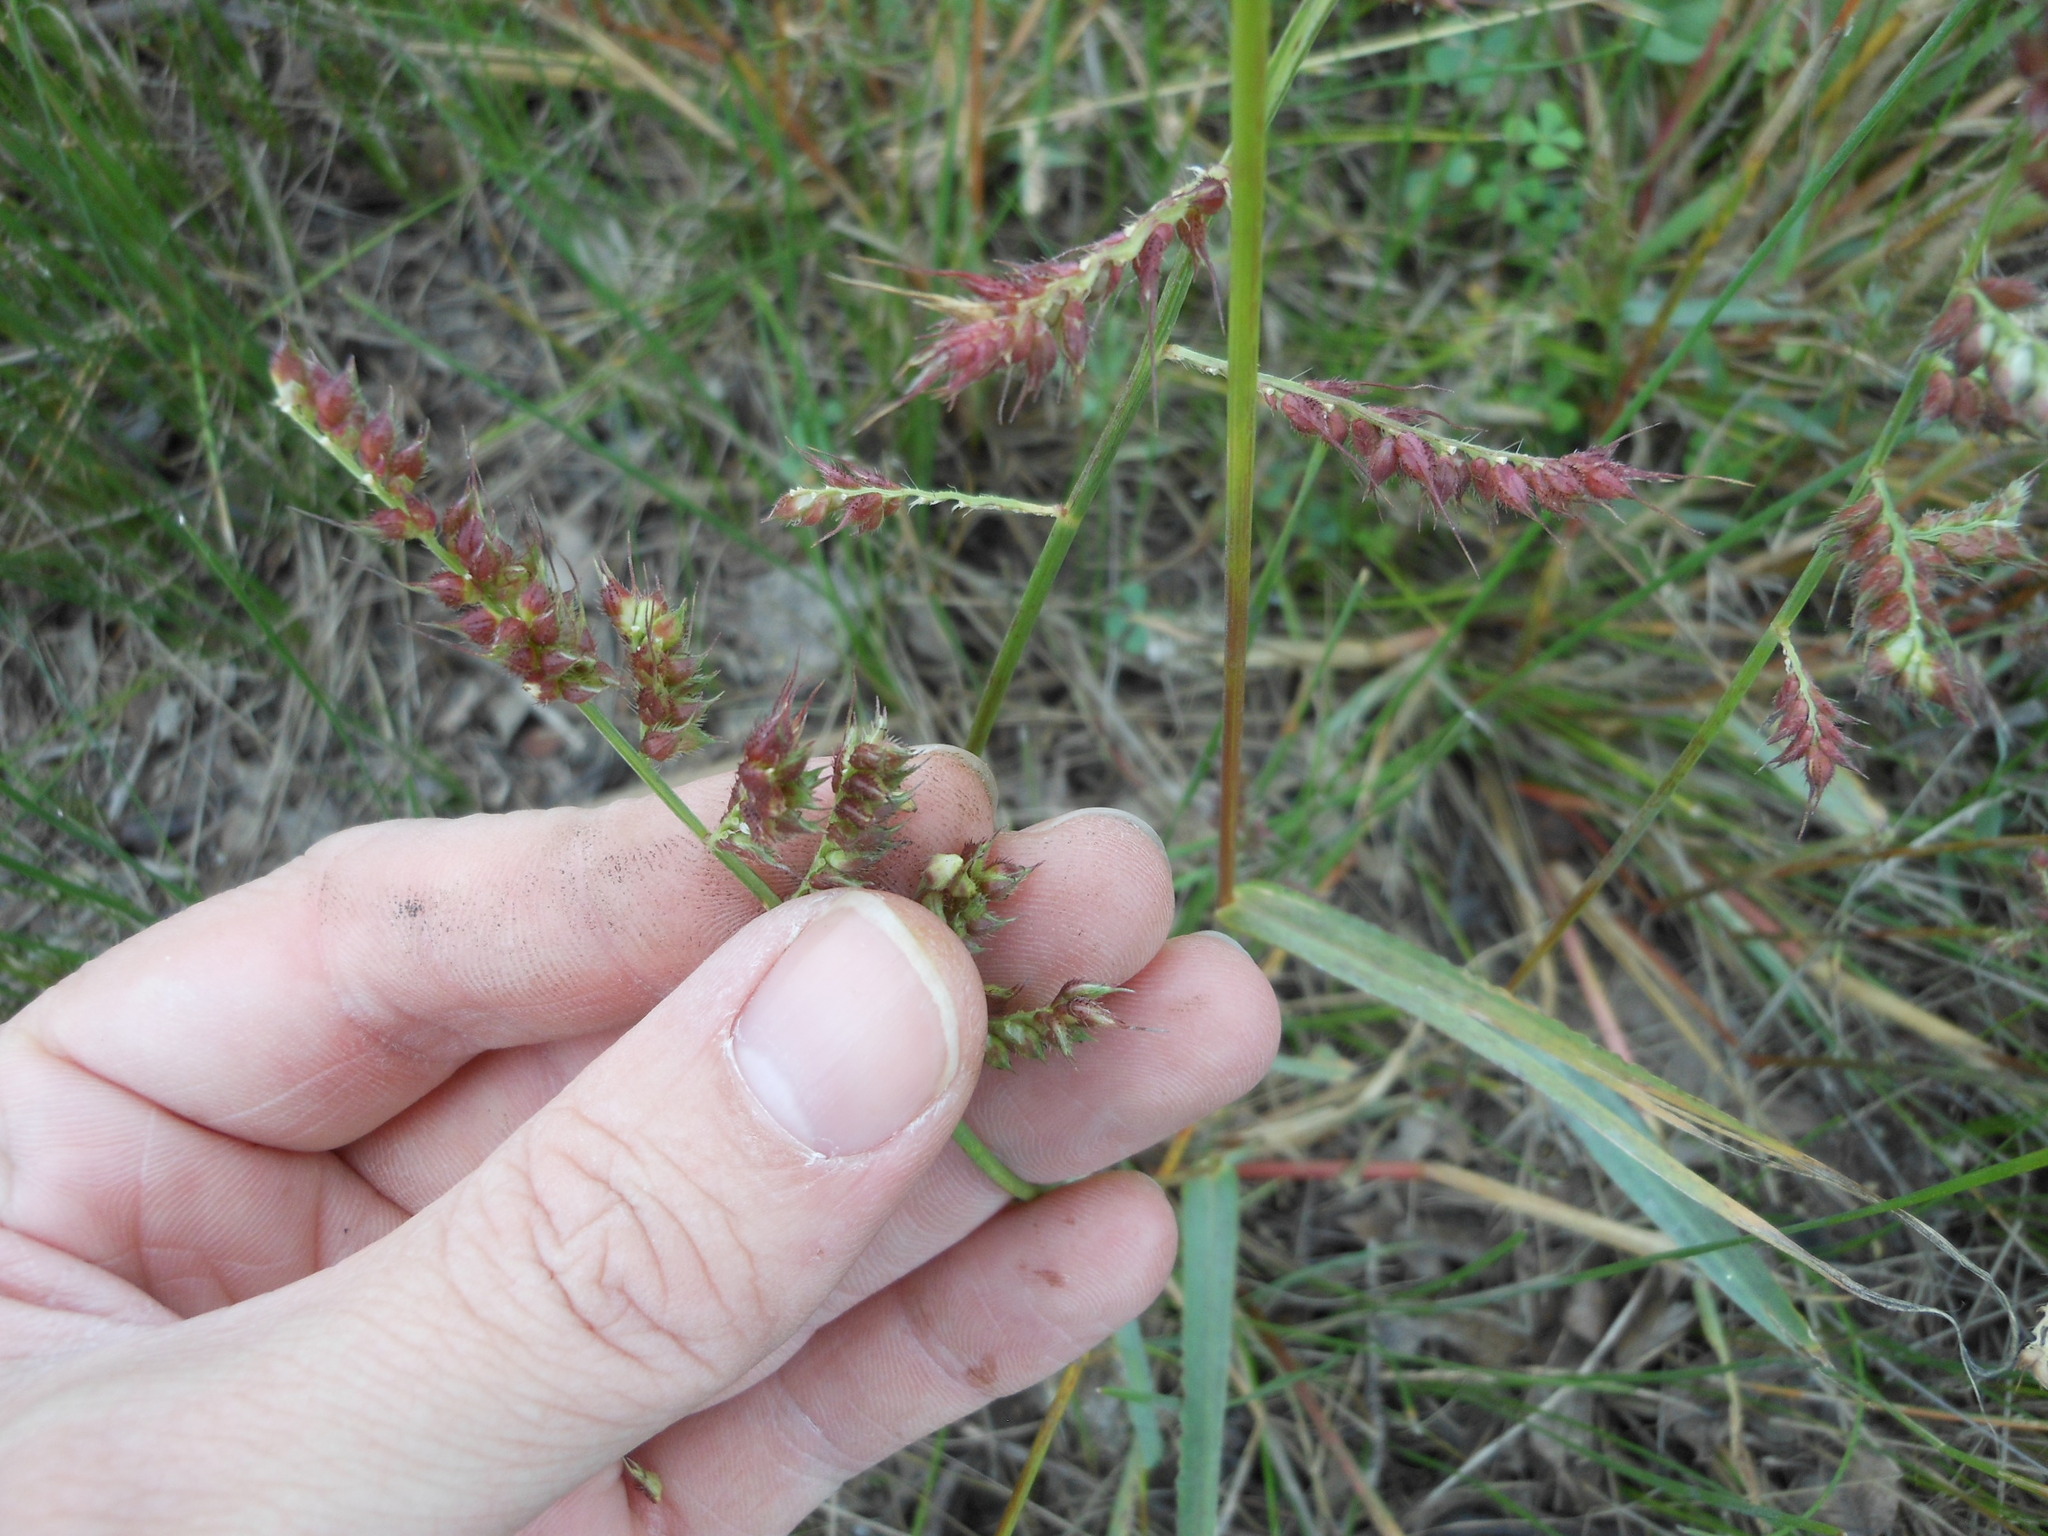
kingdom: Plantae
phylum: Tracheophyta
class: Liliopsida
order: Poales
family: Poaceae
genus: Echinochloa
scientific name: Echinochloa crus-galli
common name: Cockspur
